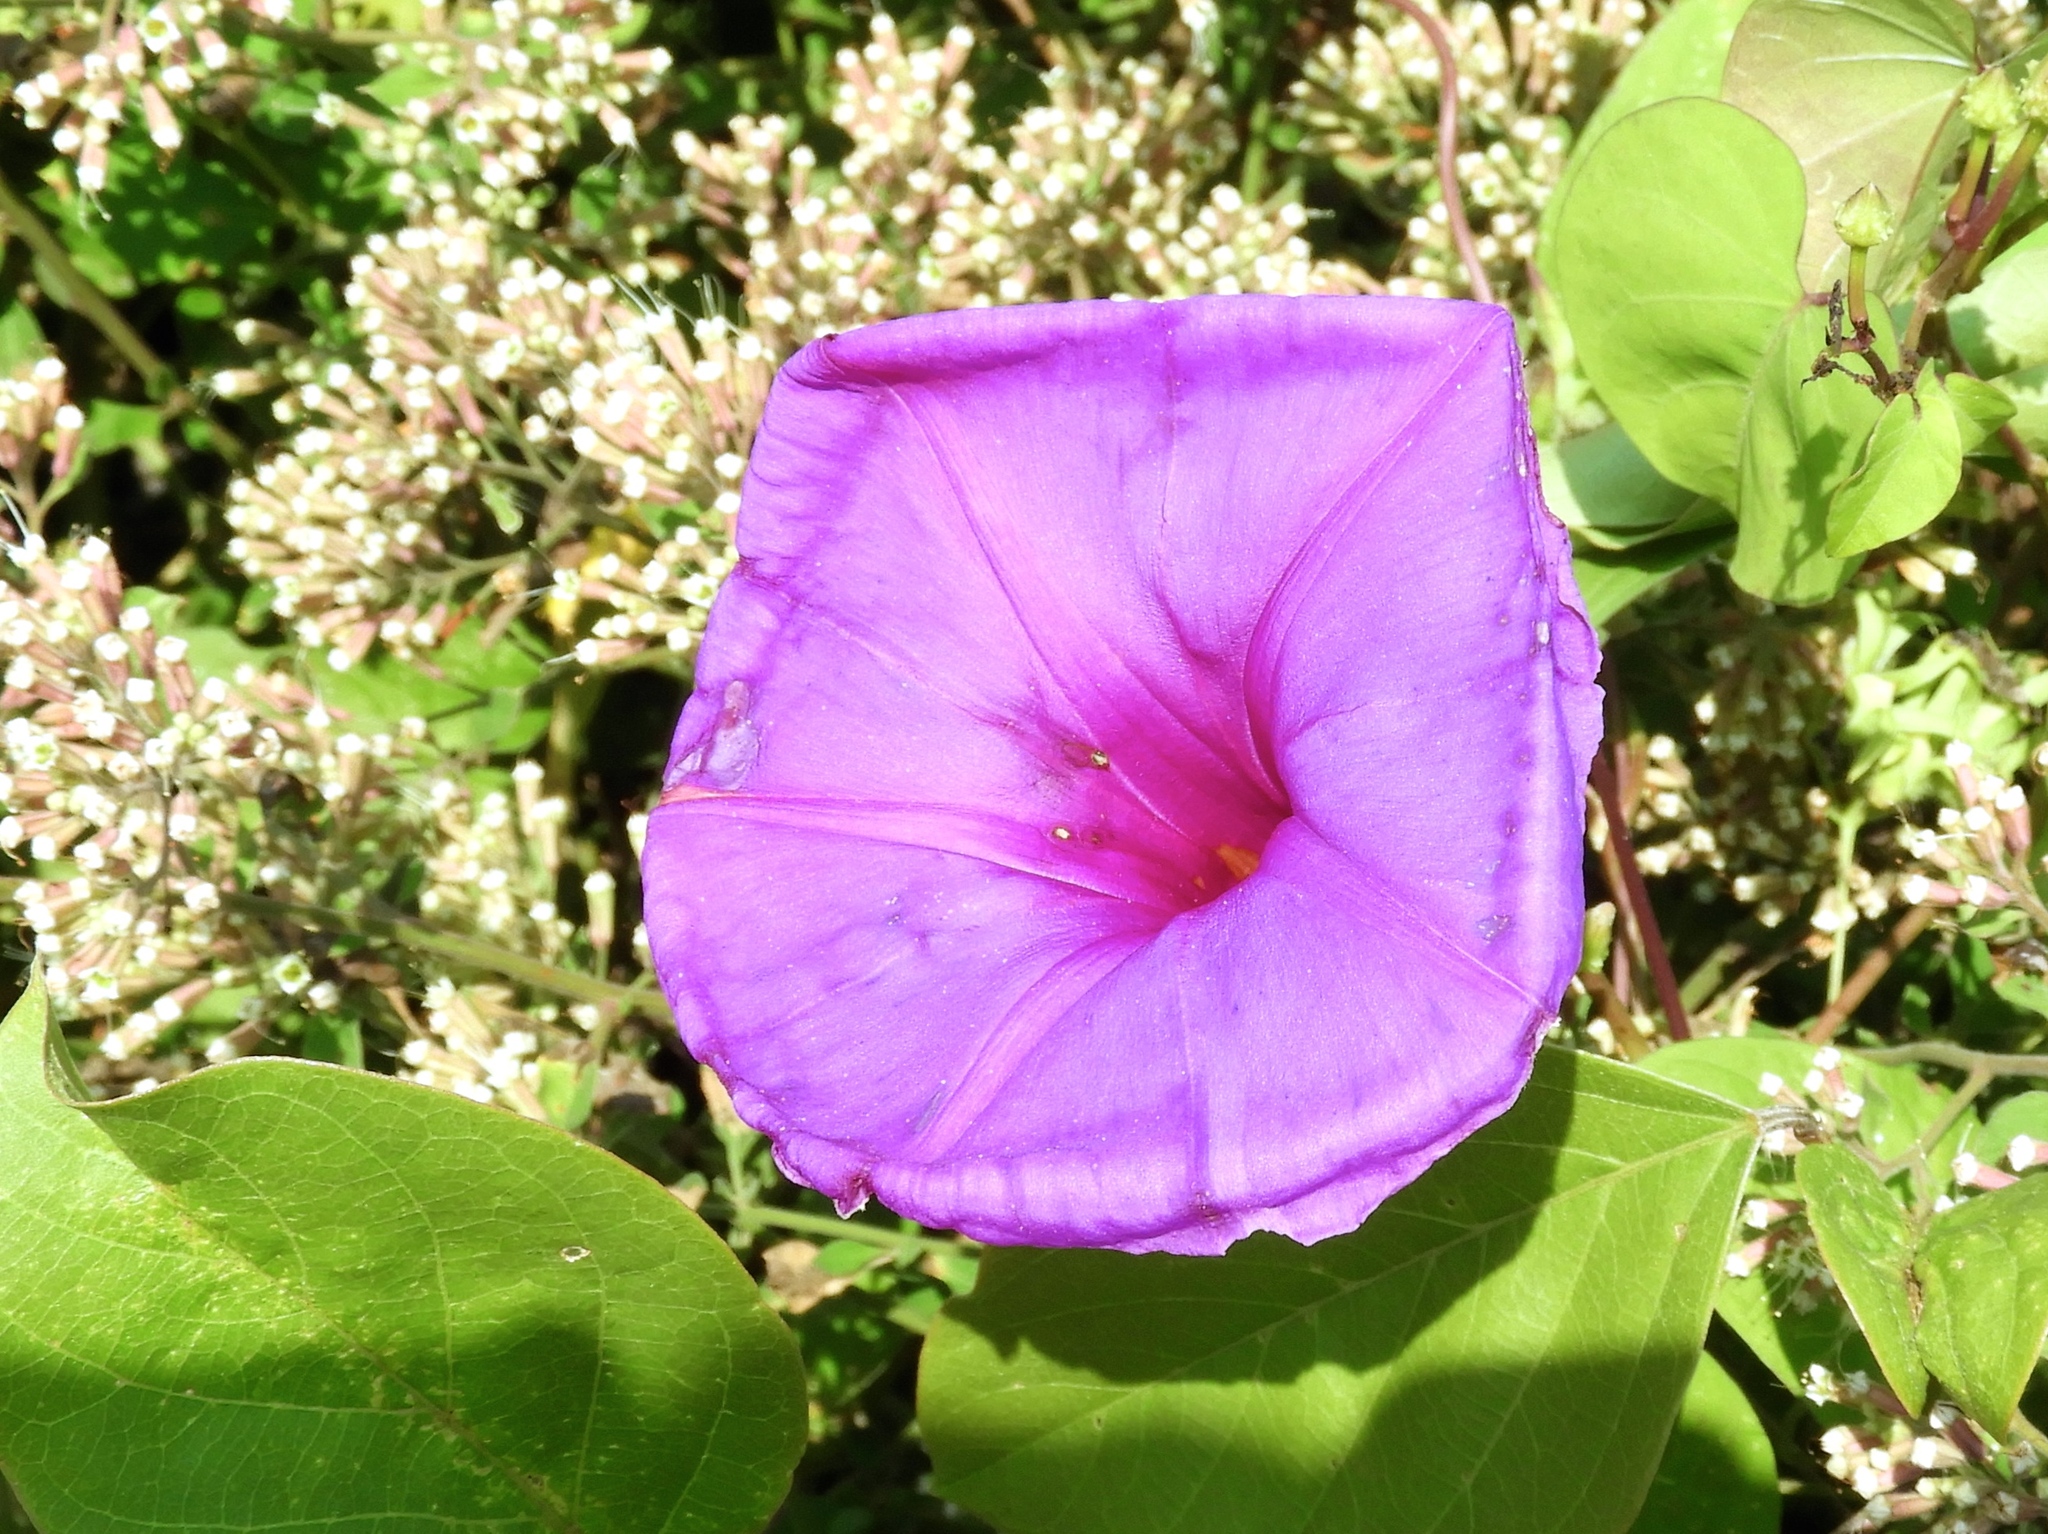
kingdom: Plantae
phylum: Tracheophyta
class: Magnoliopsida
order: Solanales
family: Convolvulaceae
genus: Ipomoea
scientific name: Ipomoea pedicellaris
